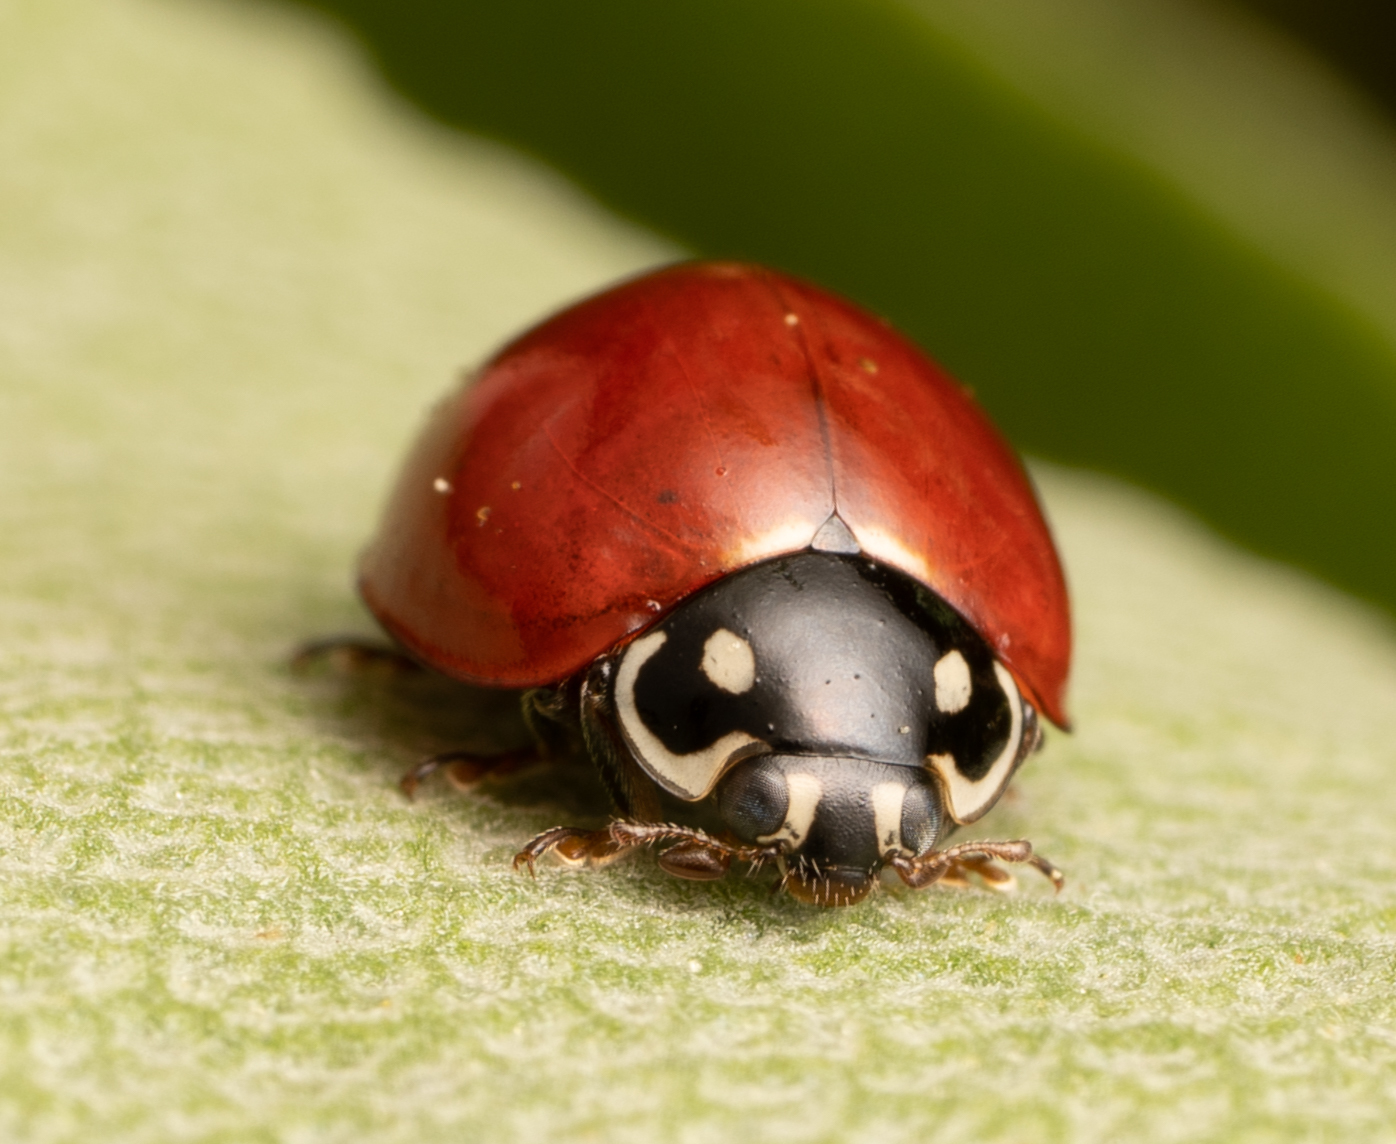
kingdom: Animalia
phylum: Arthropoda
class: Insecta
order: Coleoptera
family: Coccinellidae
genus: Cycloneda
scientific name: Cycloneda sanguinea
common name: Ladybird beetle
